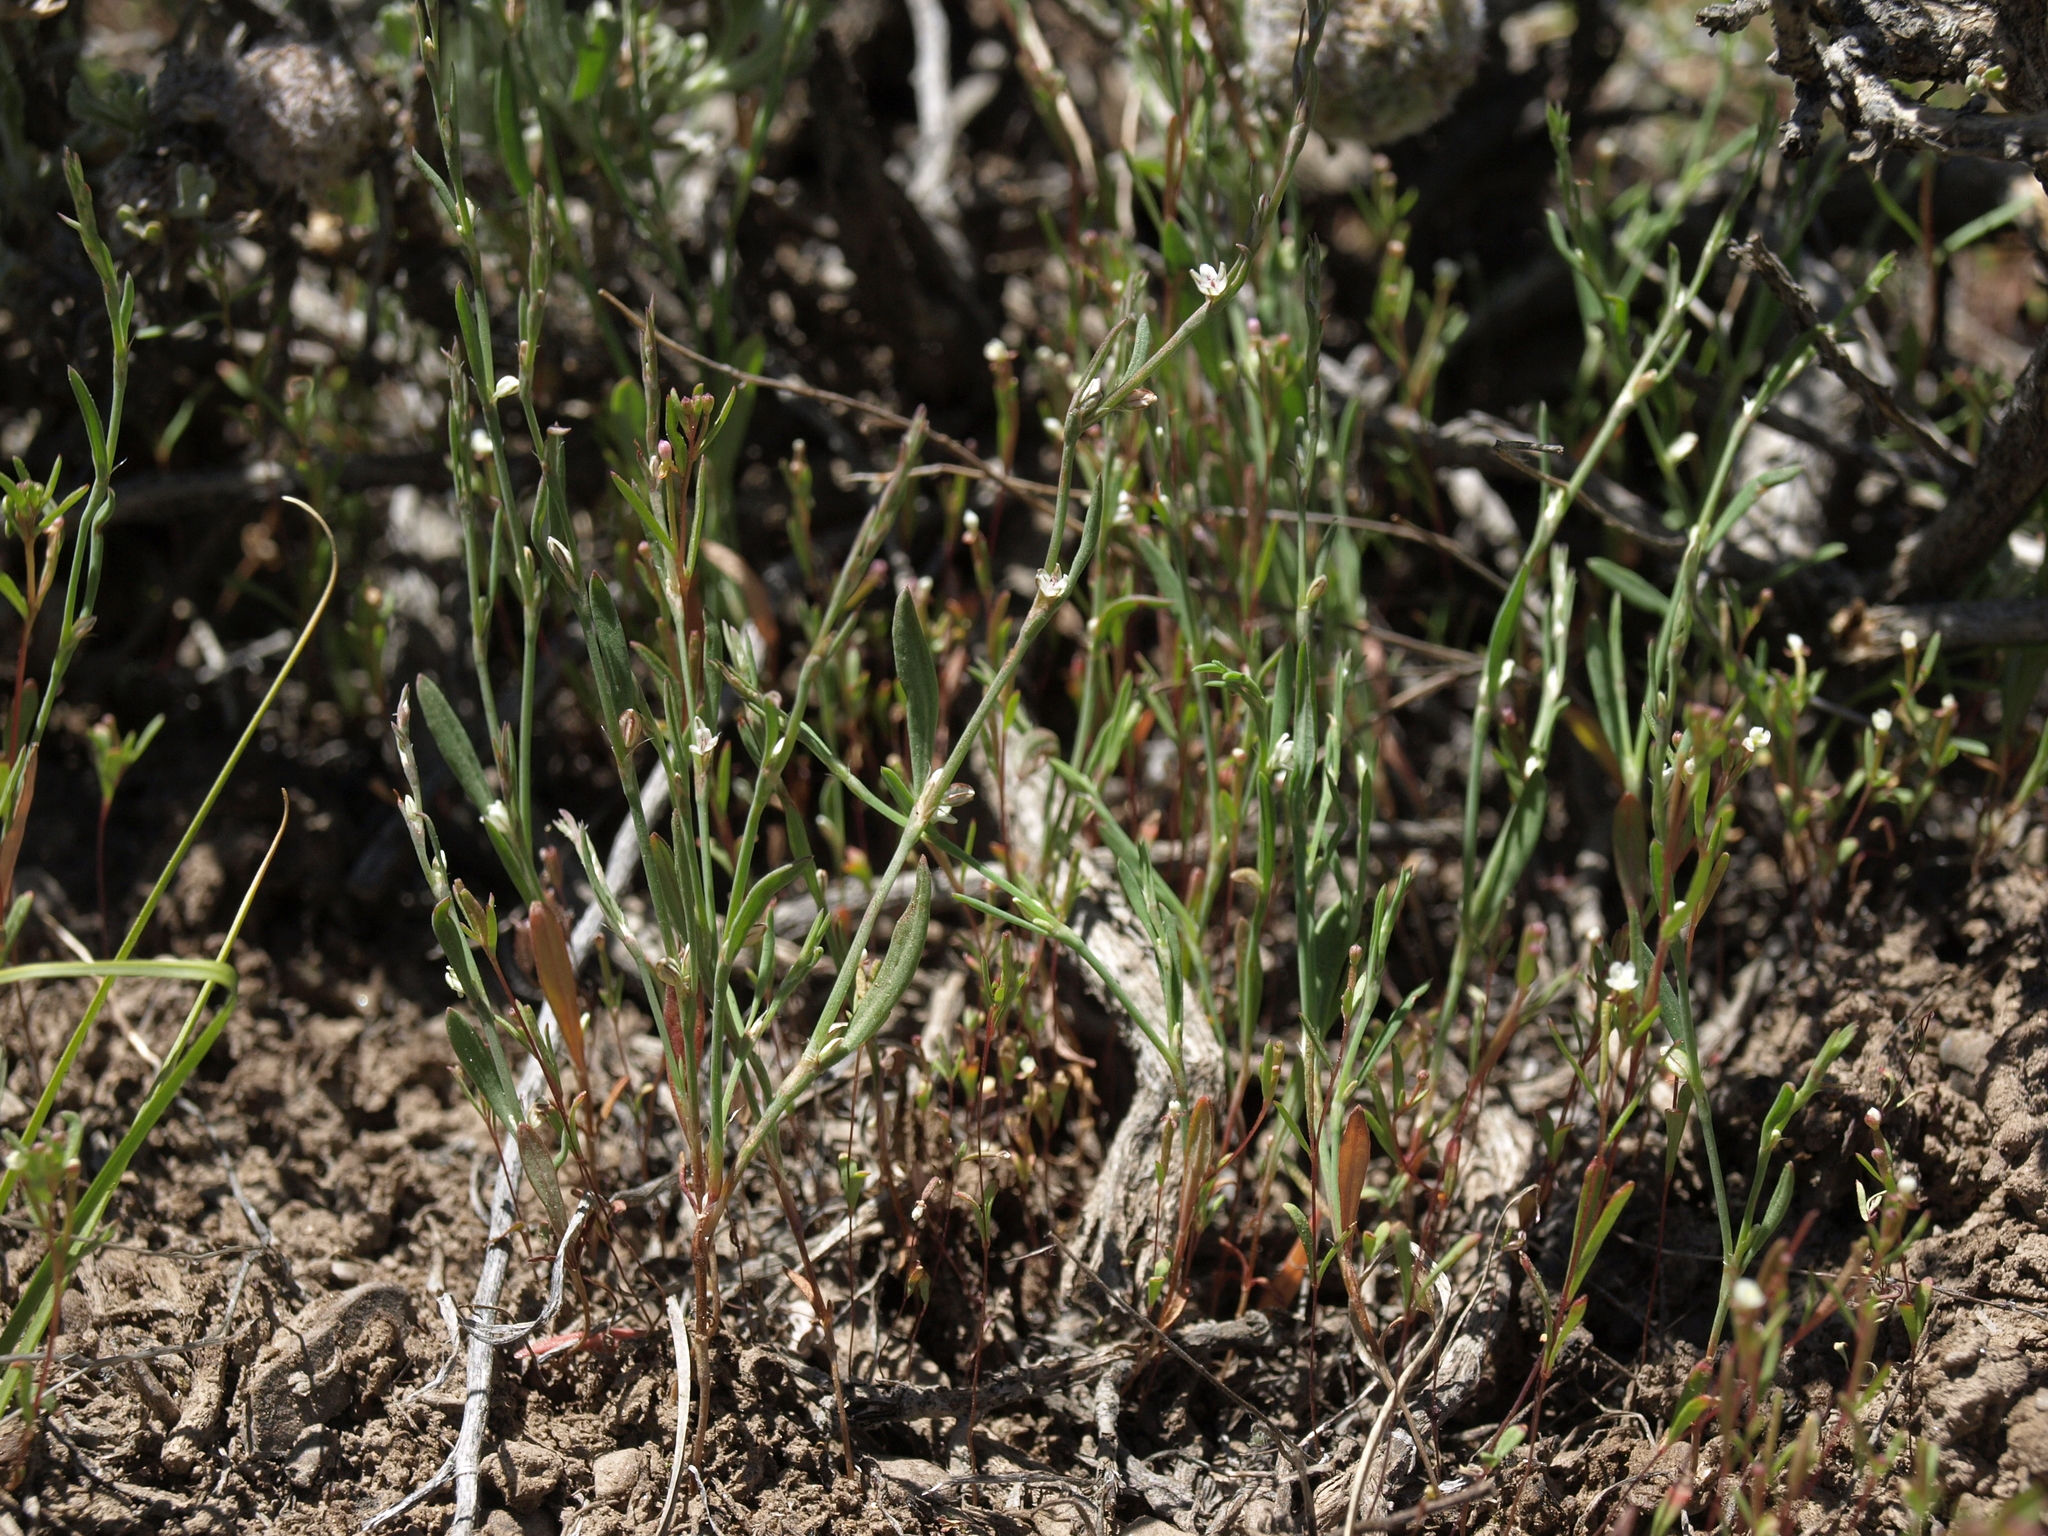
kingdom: Plantae
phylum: Tracheophyta
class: Magnoliopsida
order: Caryophyllales
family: Polygonaceae
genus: Polygonum
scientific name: Polygonum sawatchense
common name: Sawatch knotweed
